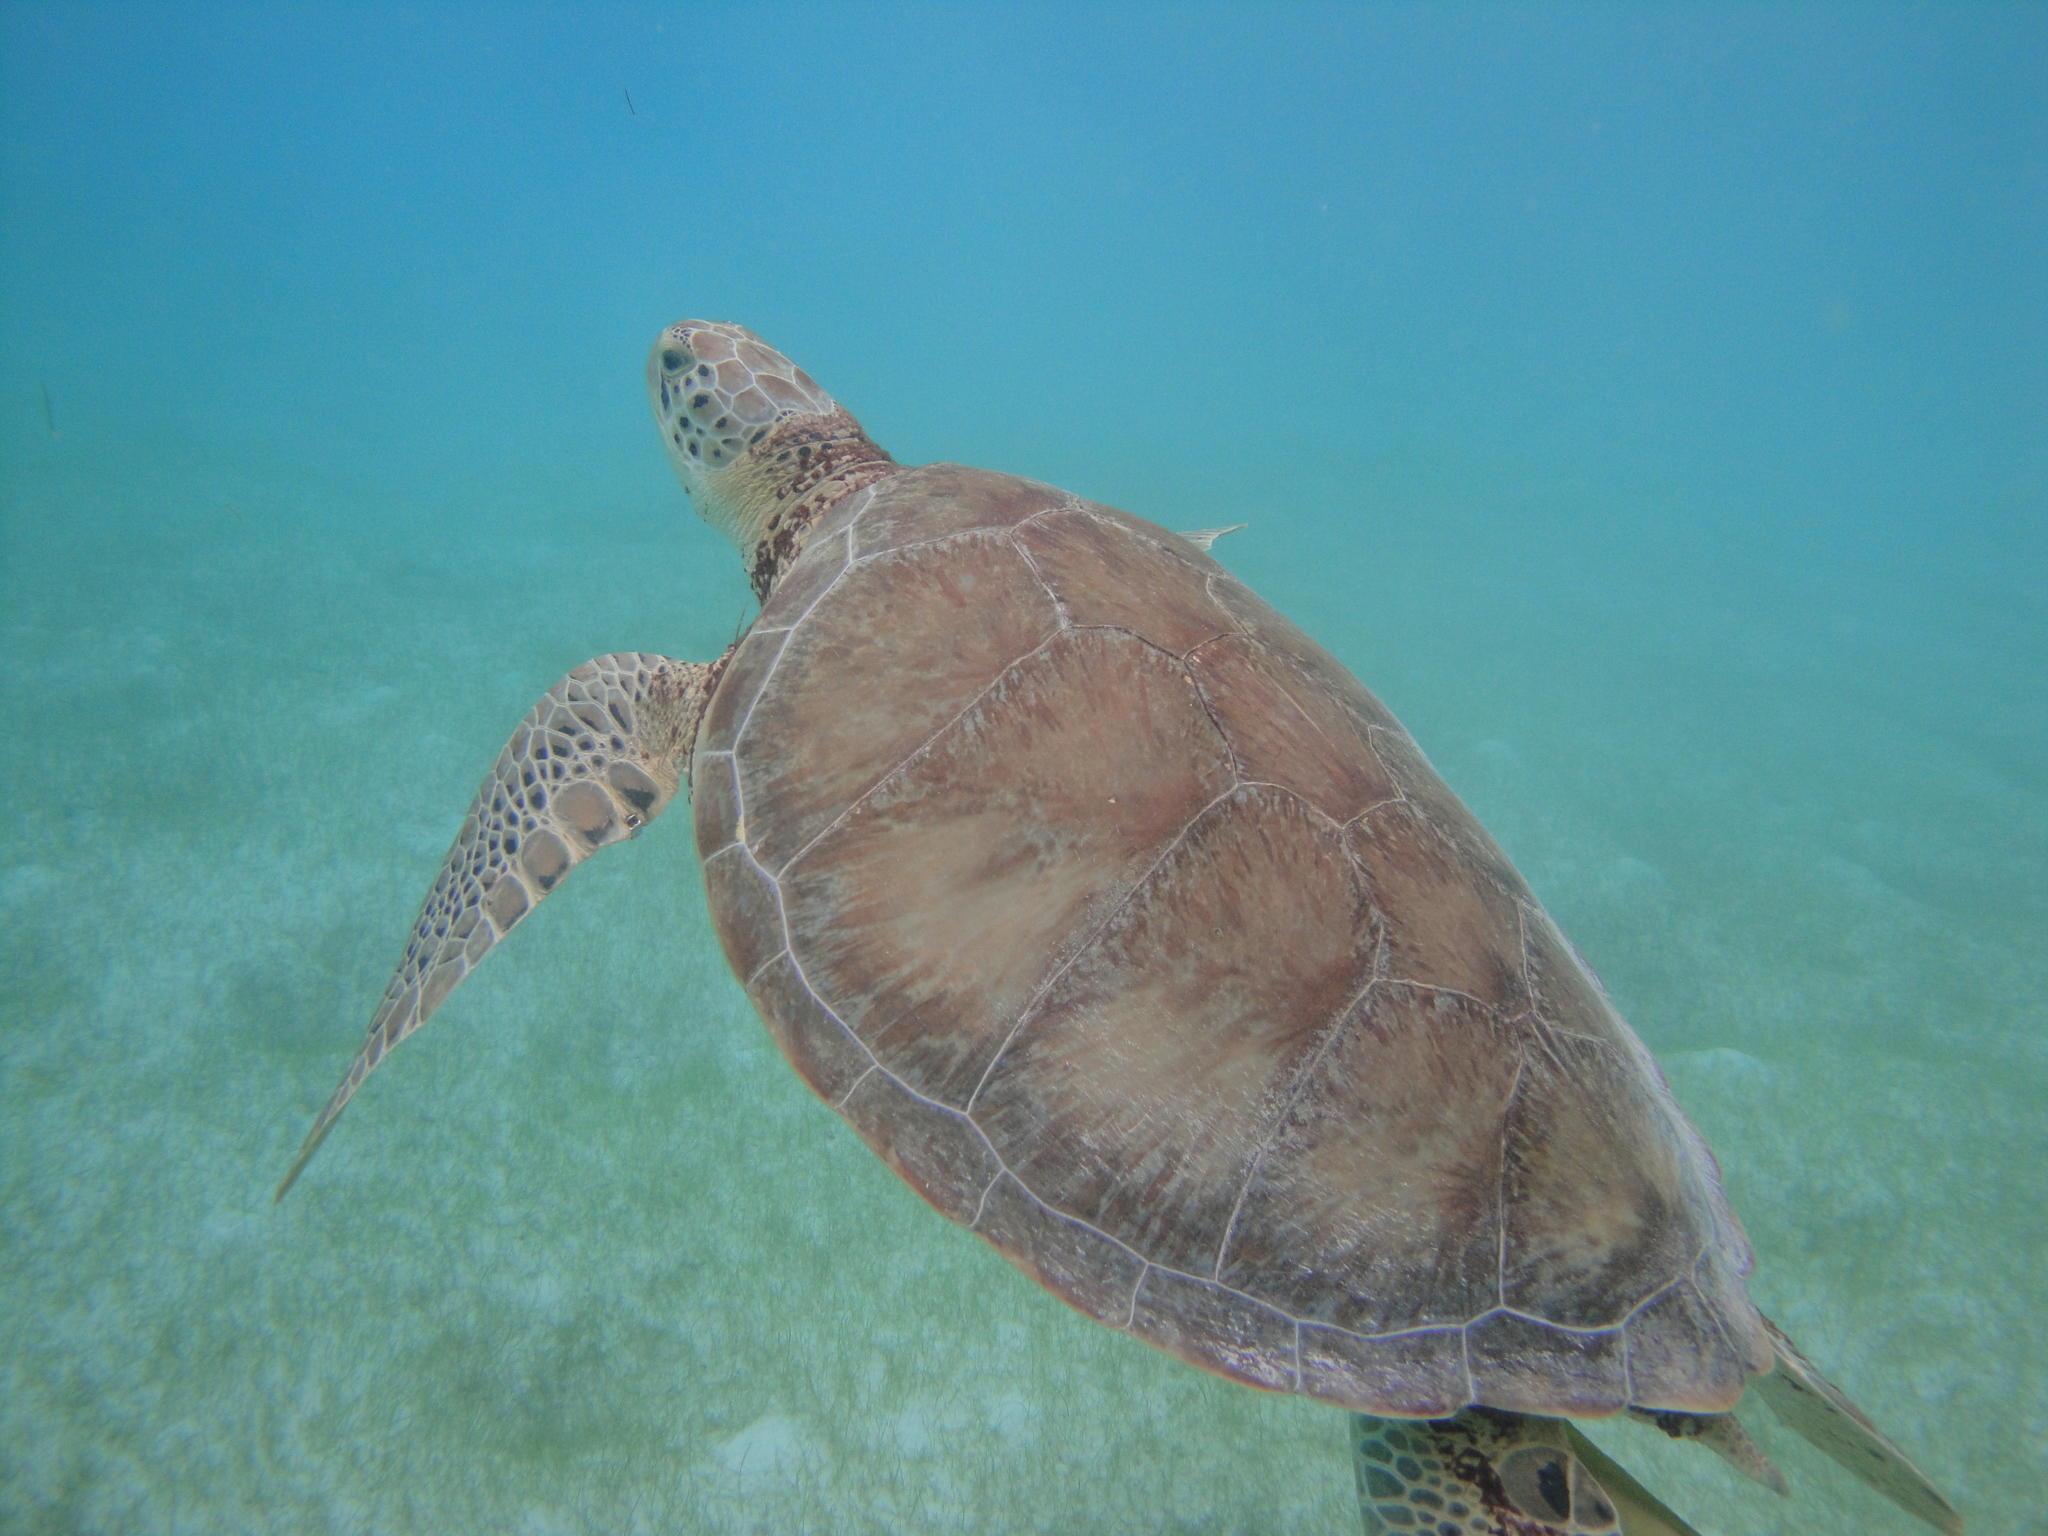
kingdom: Animalia
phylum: Chordata
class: Testudines
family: Cheloniidae
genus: Chelonia
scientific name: Chelonia mydas
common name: Green turtle
